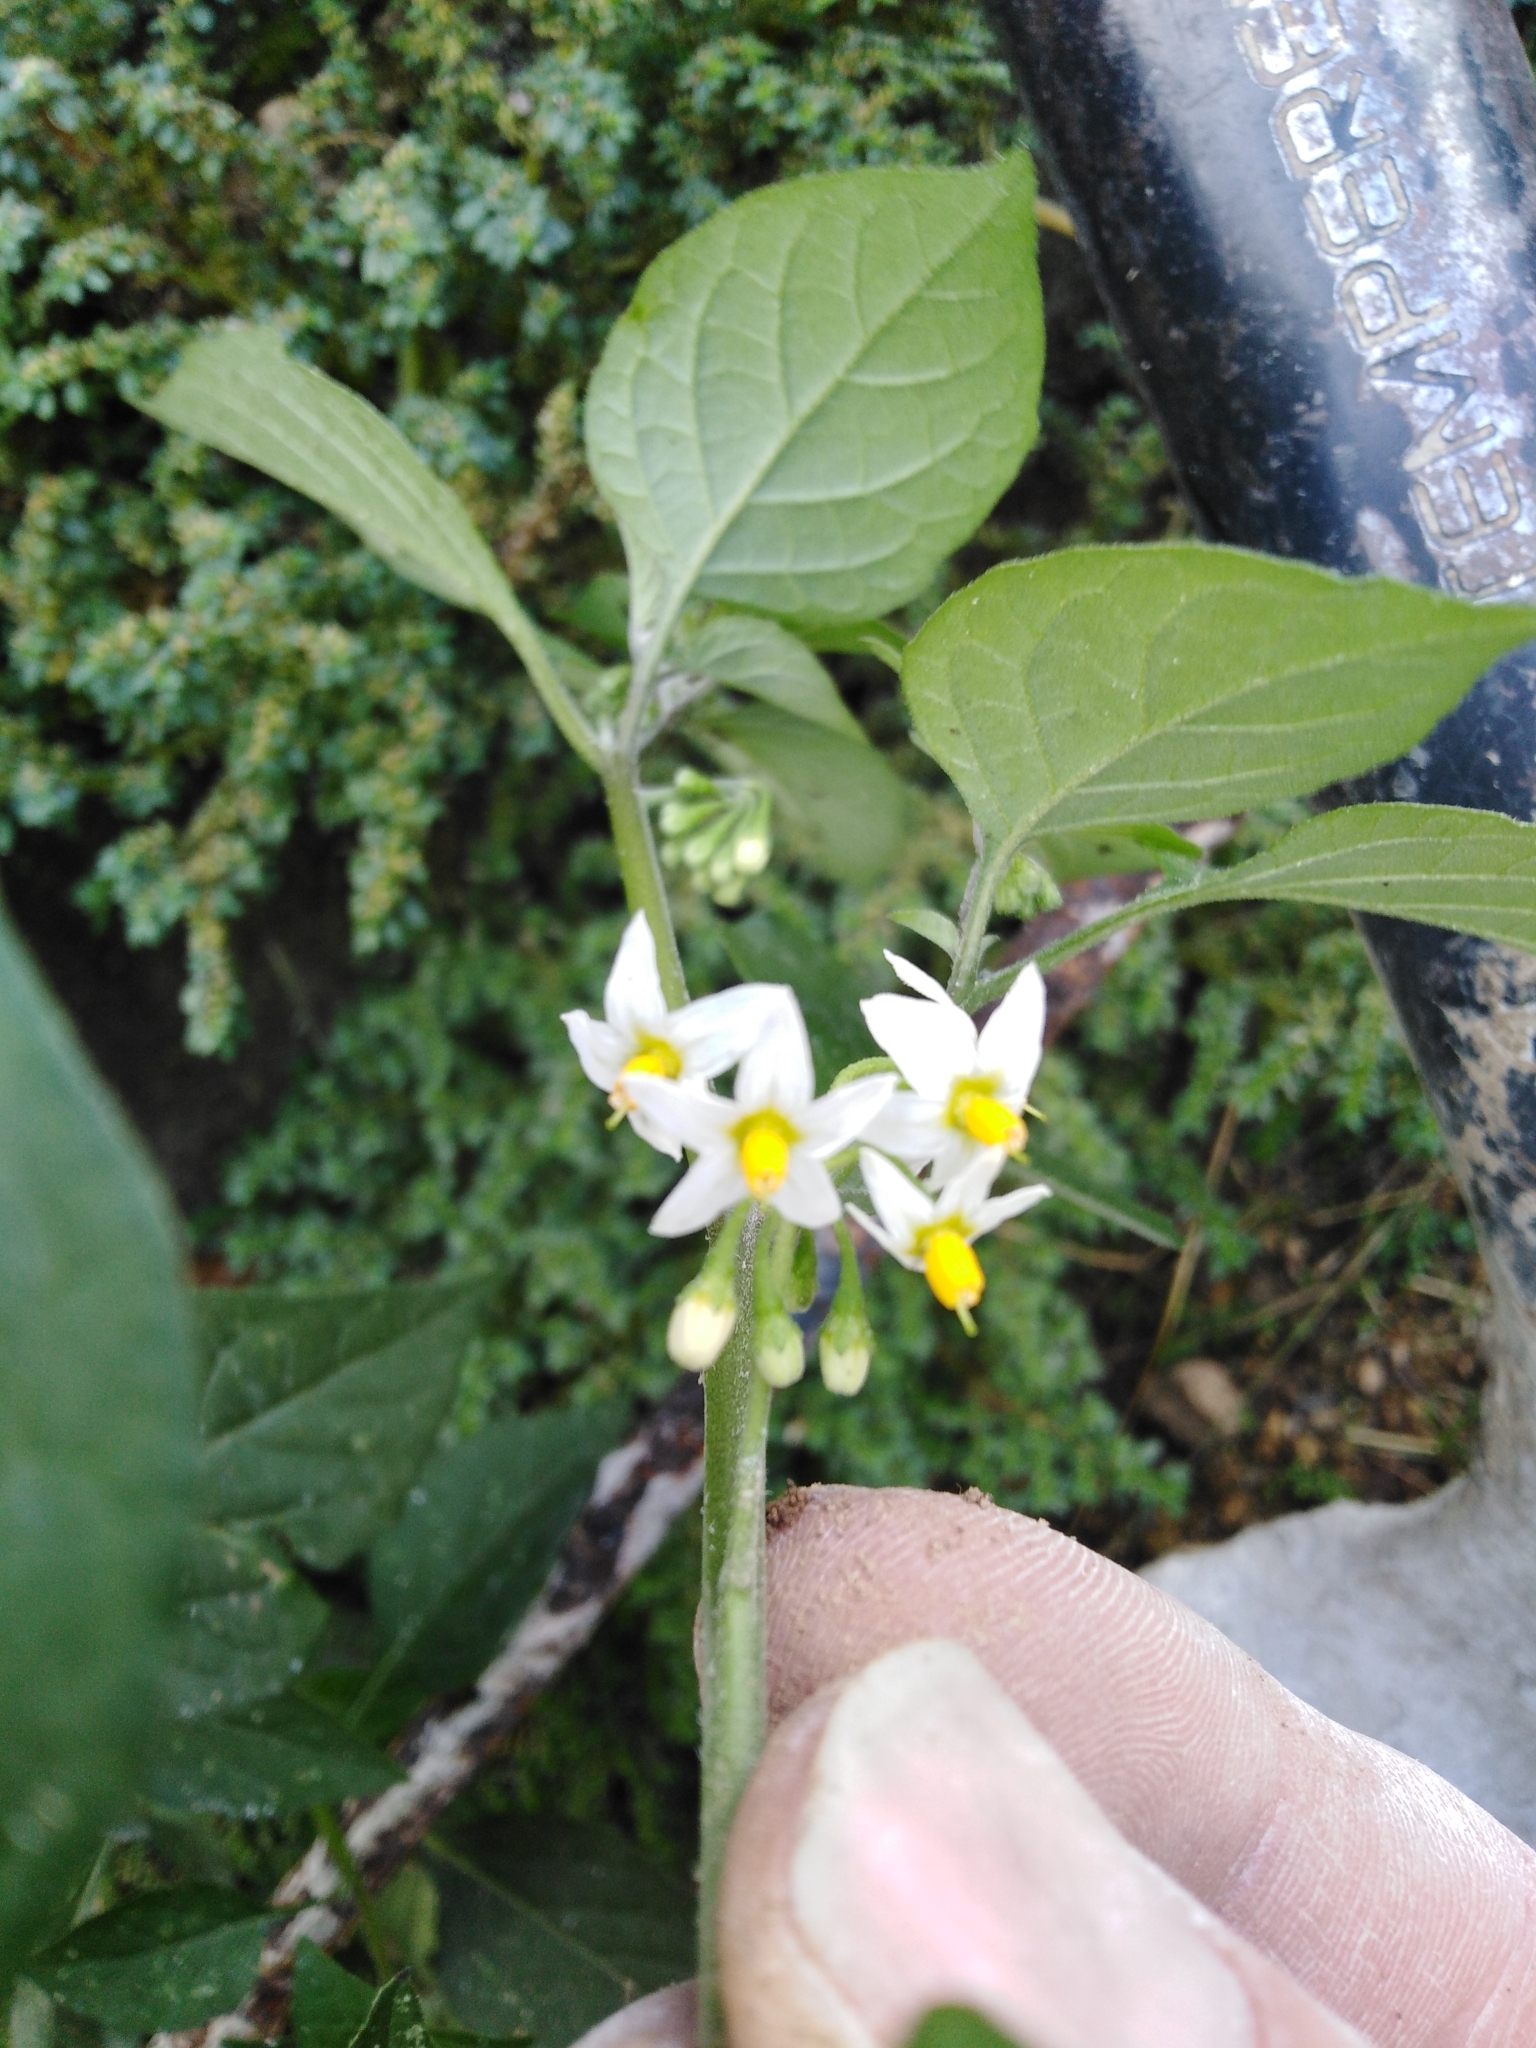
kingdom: Plantae
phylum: Tracheophyta
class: Magnoliopsida
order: Solanales
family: Solanaceae
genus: Solanum
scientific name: Solanum americanum
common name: American black nightshade
